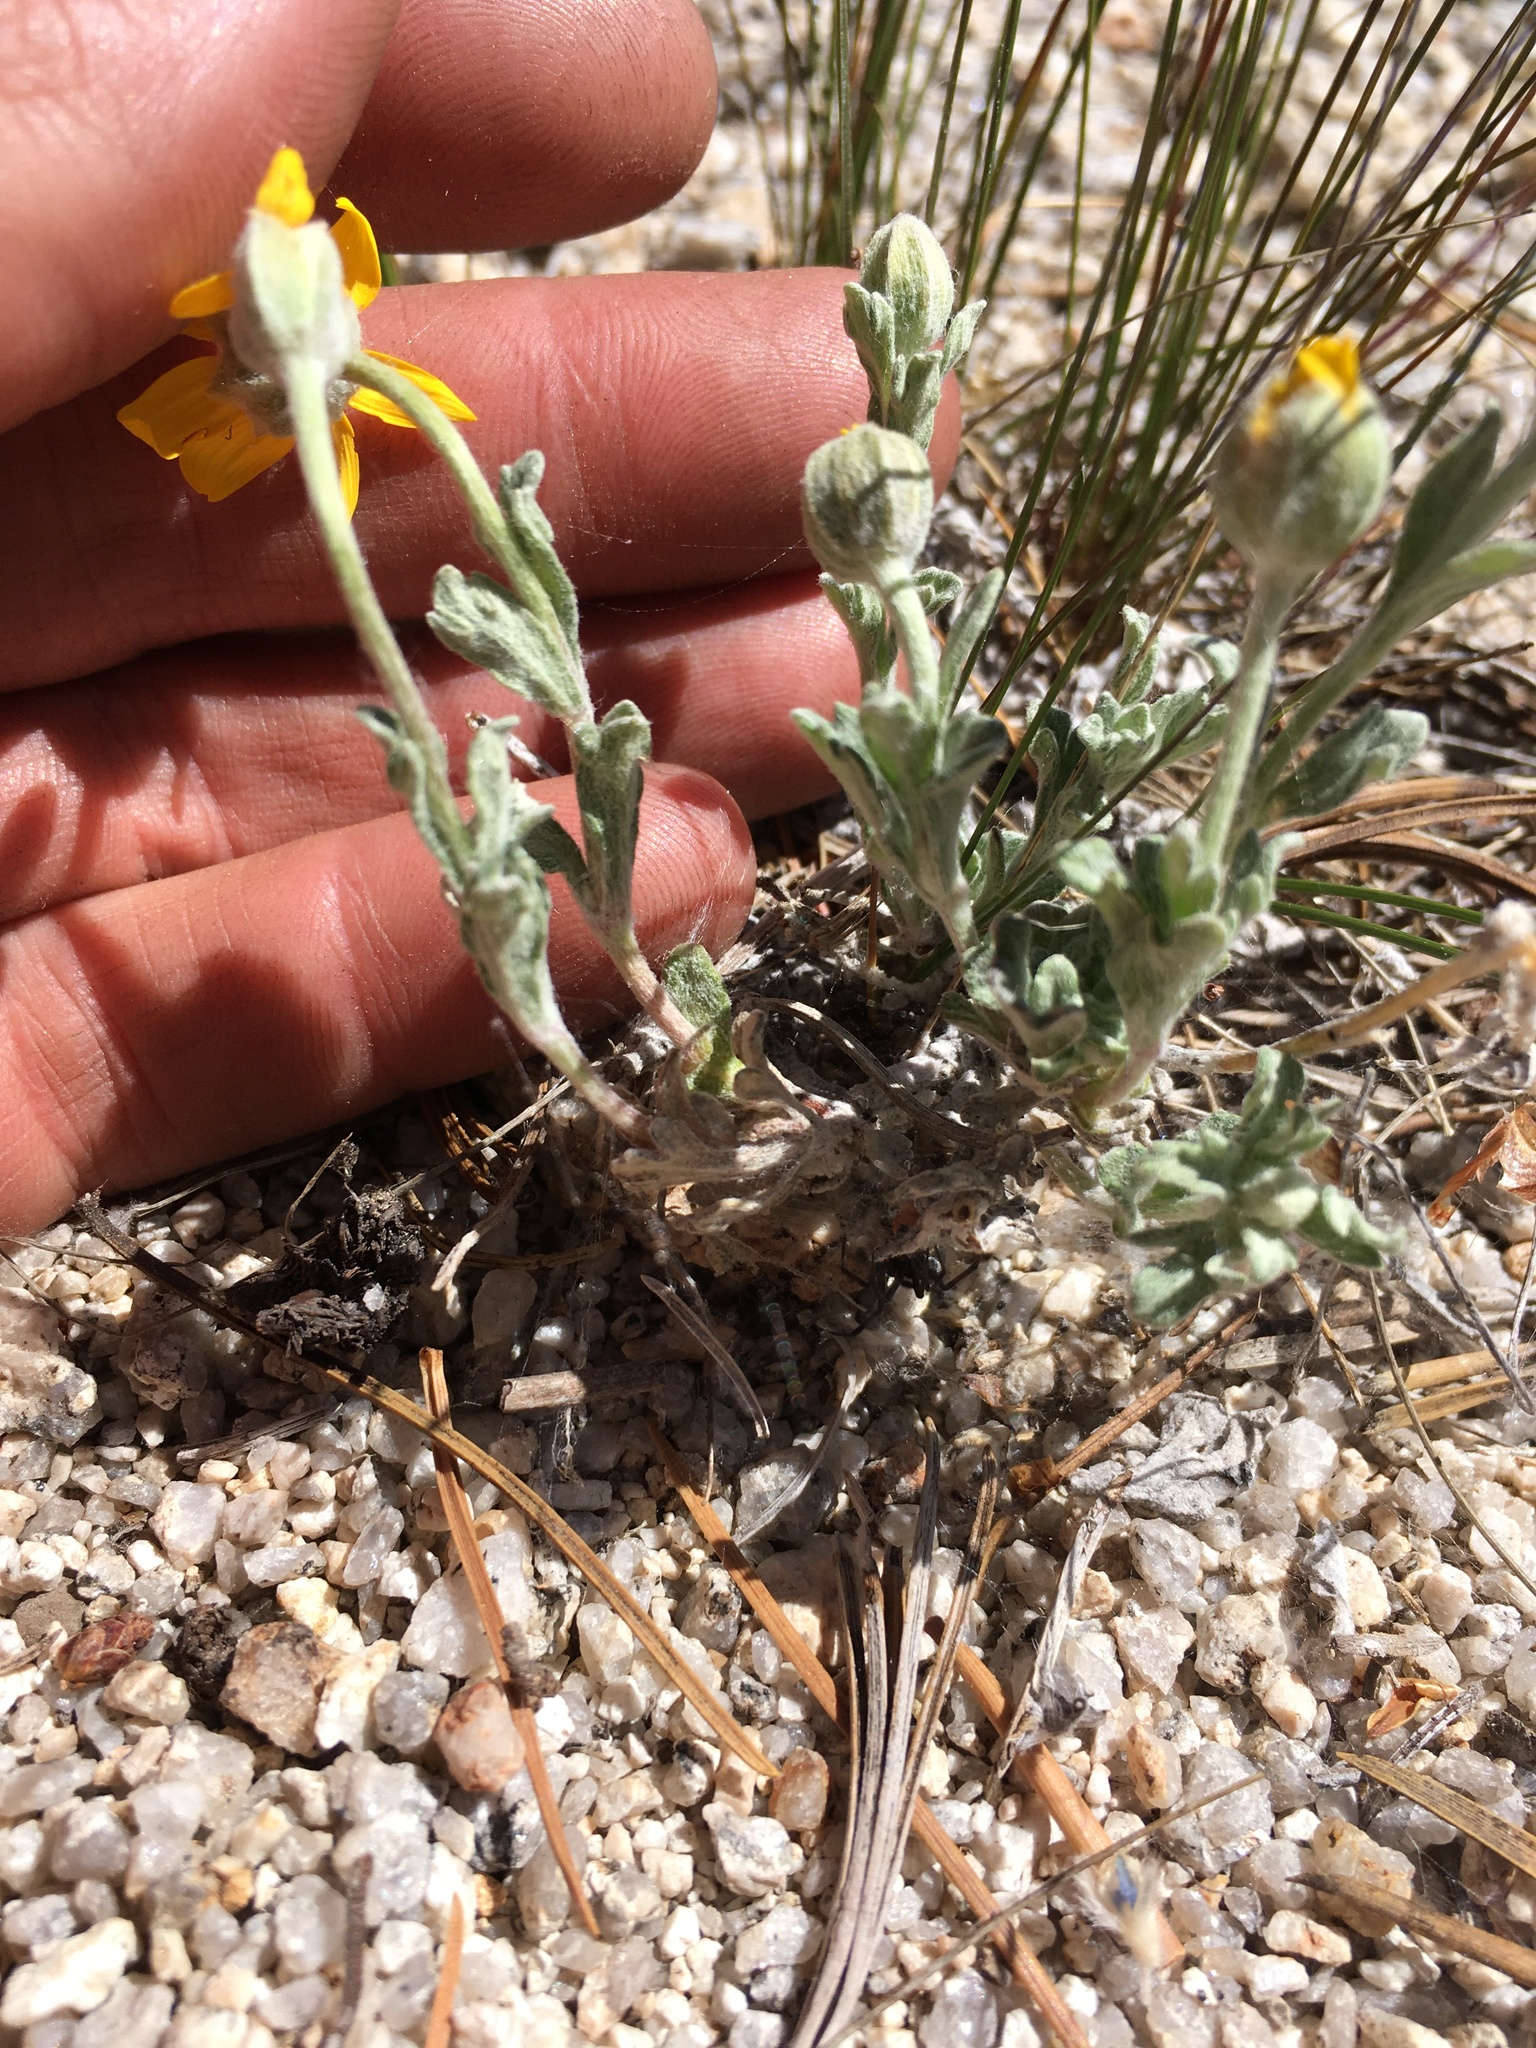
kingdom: Plantae
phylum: Tracheophyta
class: Magnoliopsida
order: Asterales
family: Asteraceae
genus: Eriophyllum
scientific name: Eriophyllum lanatum
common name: Common woolly-sunflower
